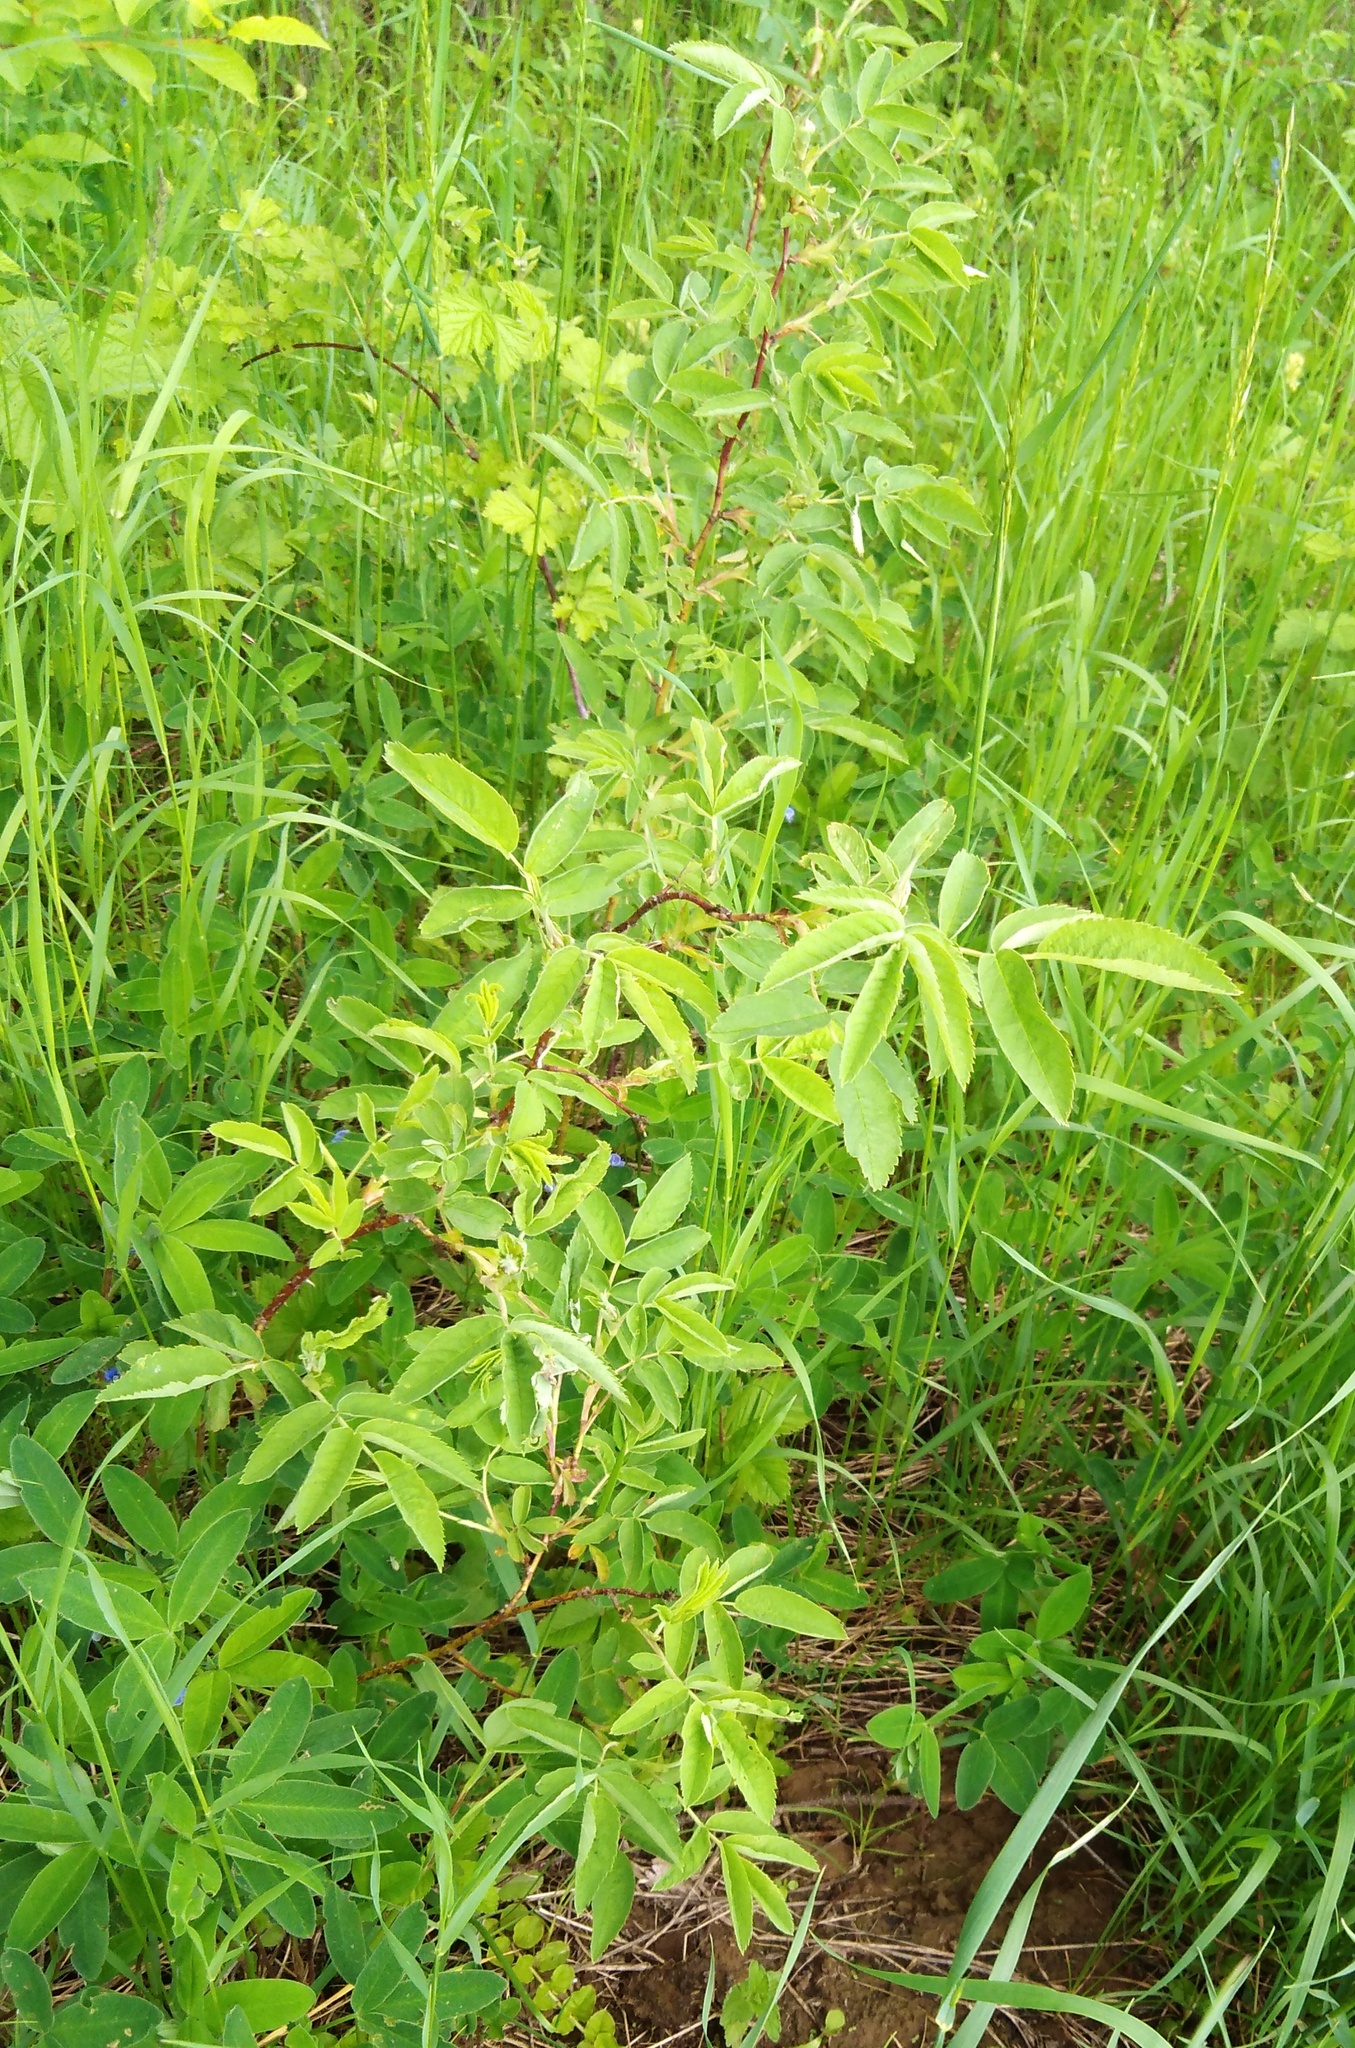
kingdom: Plantae
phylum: Tracheophyta
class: Magnoliopsida
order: Rosales
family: Rosaceae
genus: Rosa
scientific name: Rosa majalis
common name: Cinnamon rose
